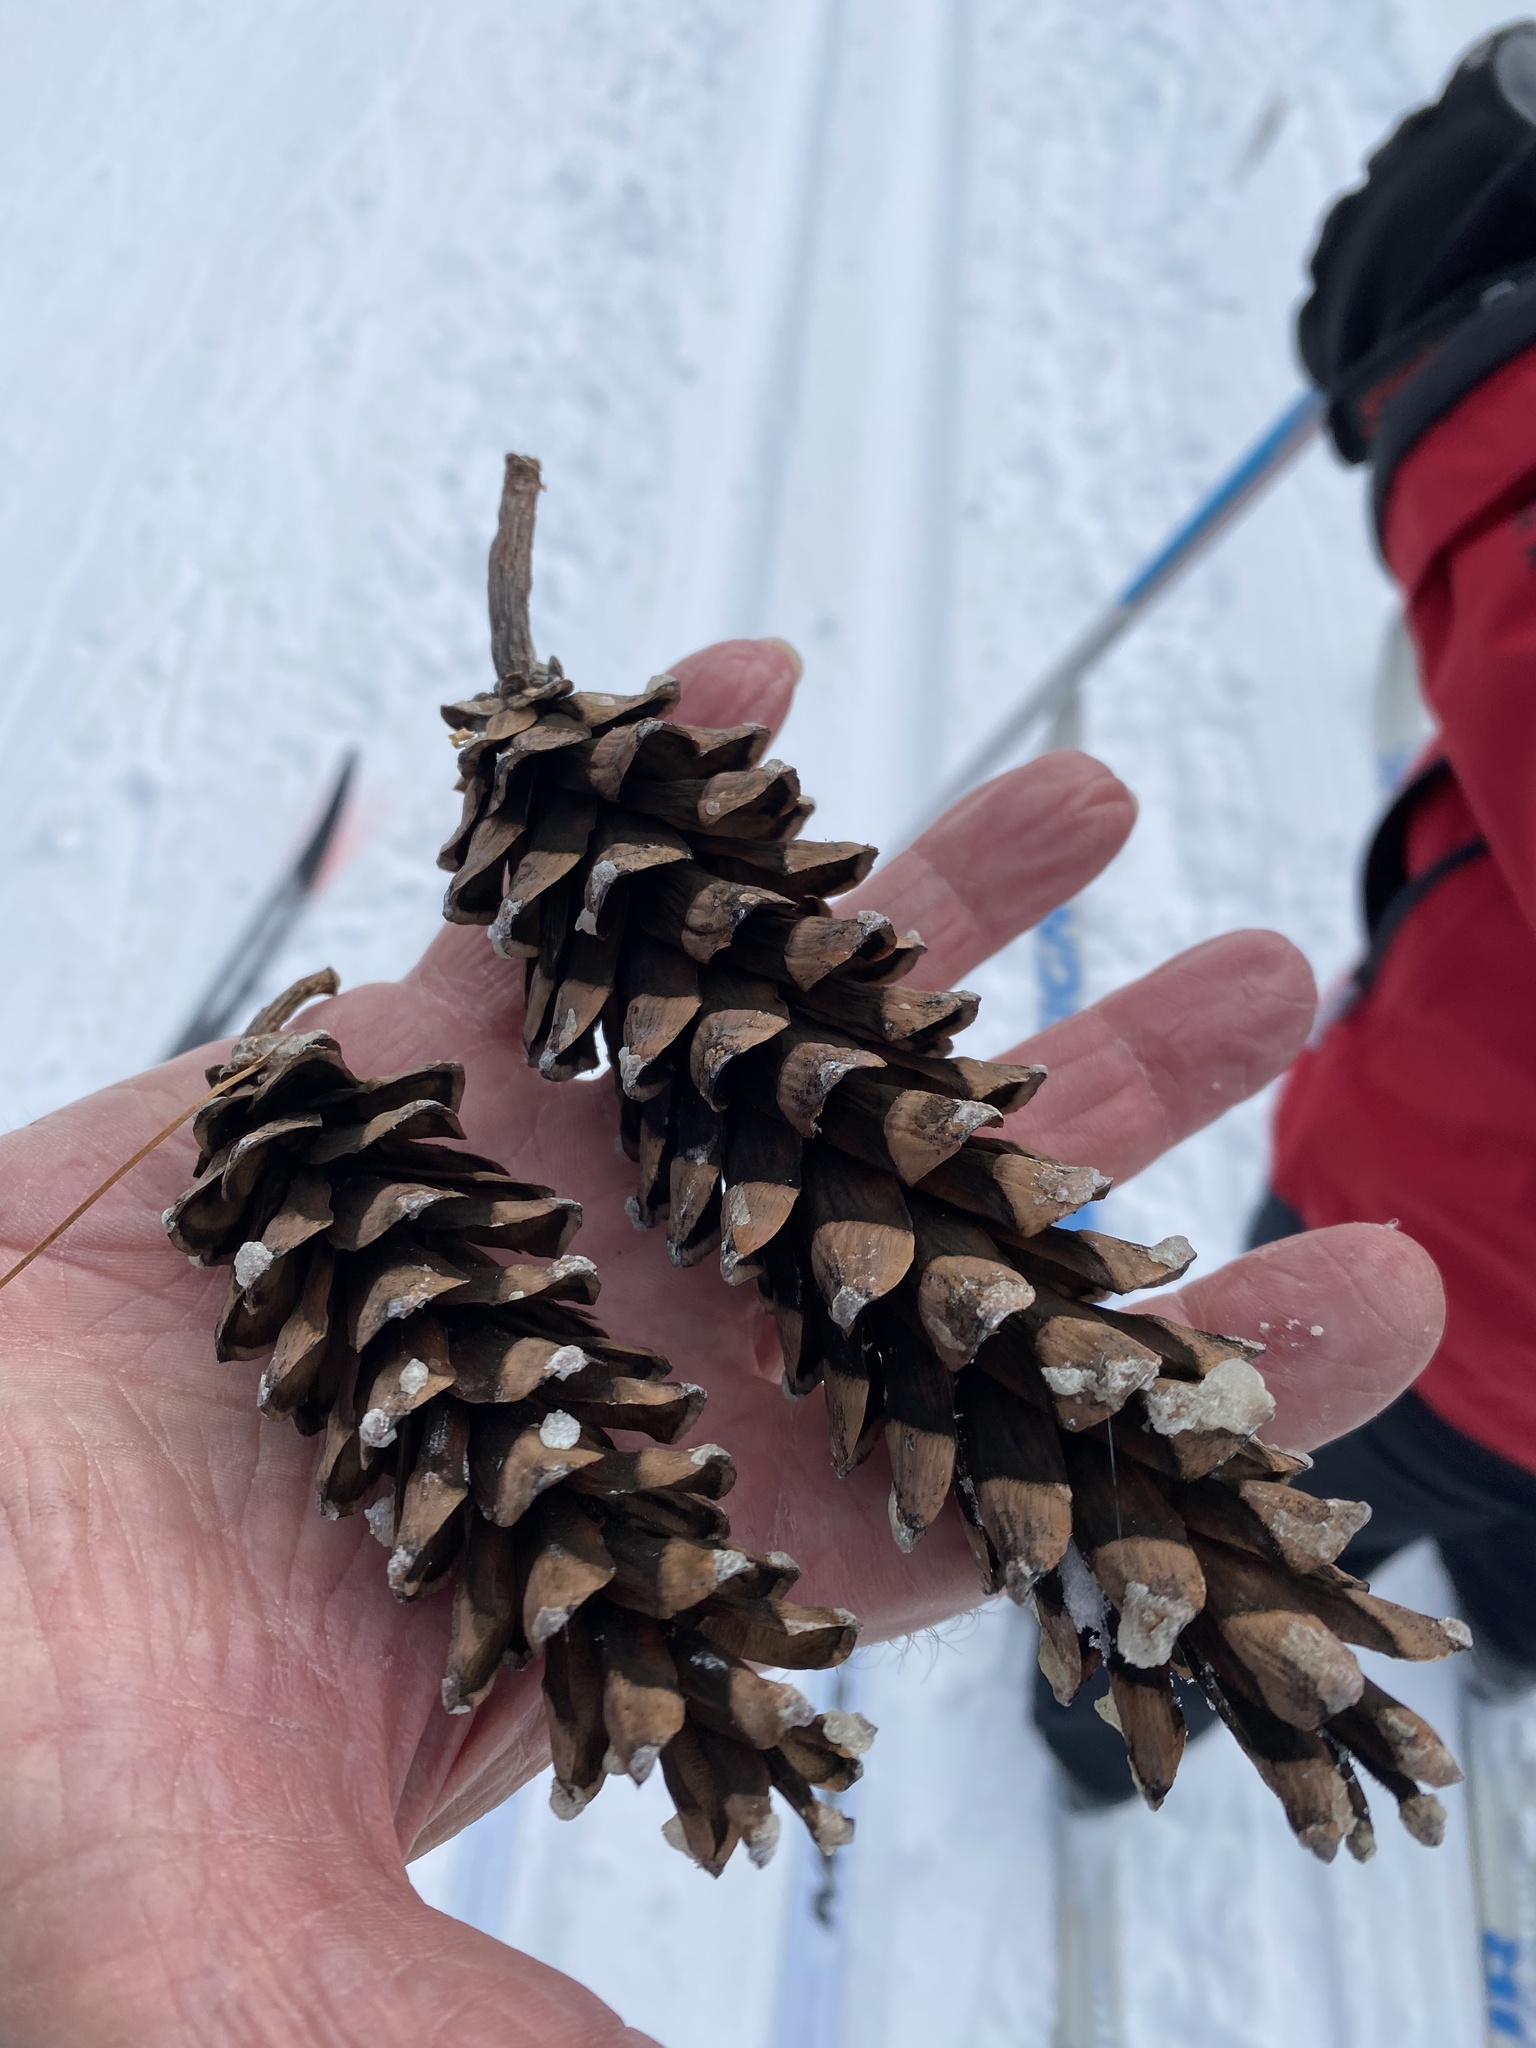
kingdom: Plantae
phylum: Tracheophyta
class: Pinopsida
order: Pinales
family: Pinaceae
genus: Pinus
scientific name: Pinus strobus
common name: Weymouth pine
